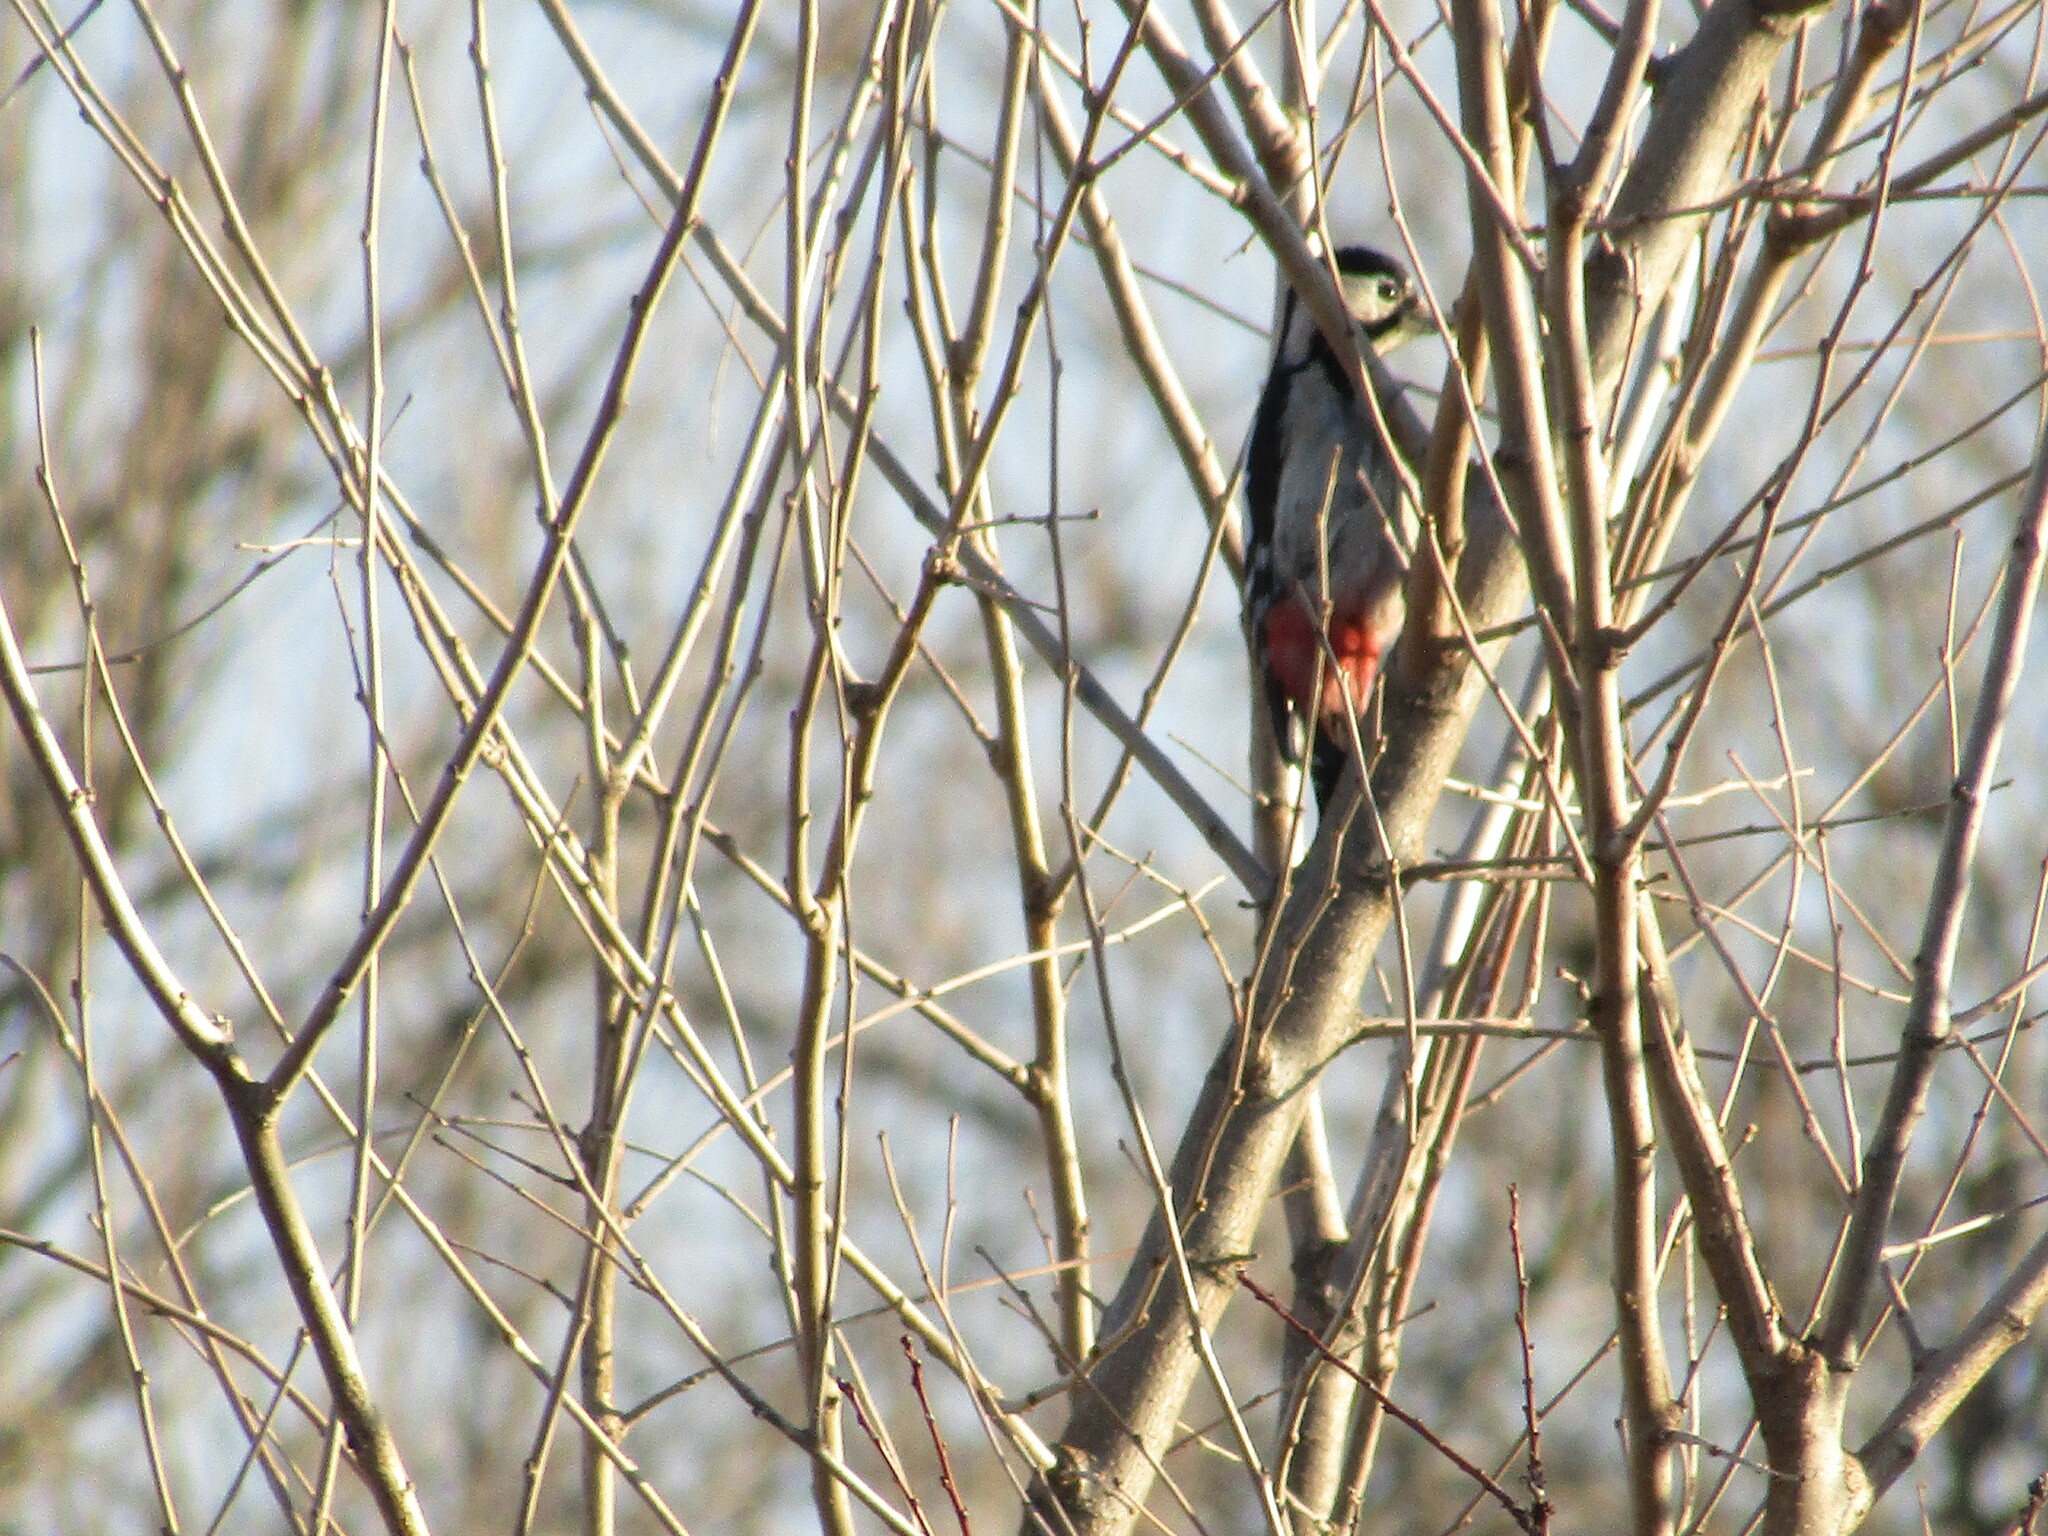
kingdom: Animalia
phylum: Chordata
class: Aves
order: Piciformes
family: Picidae
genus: Dendrocopos
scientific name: Dendrocopos
